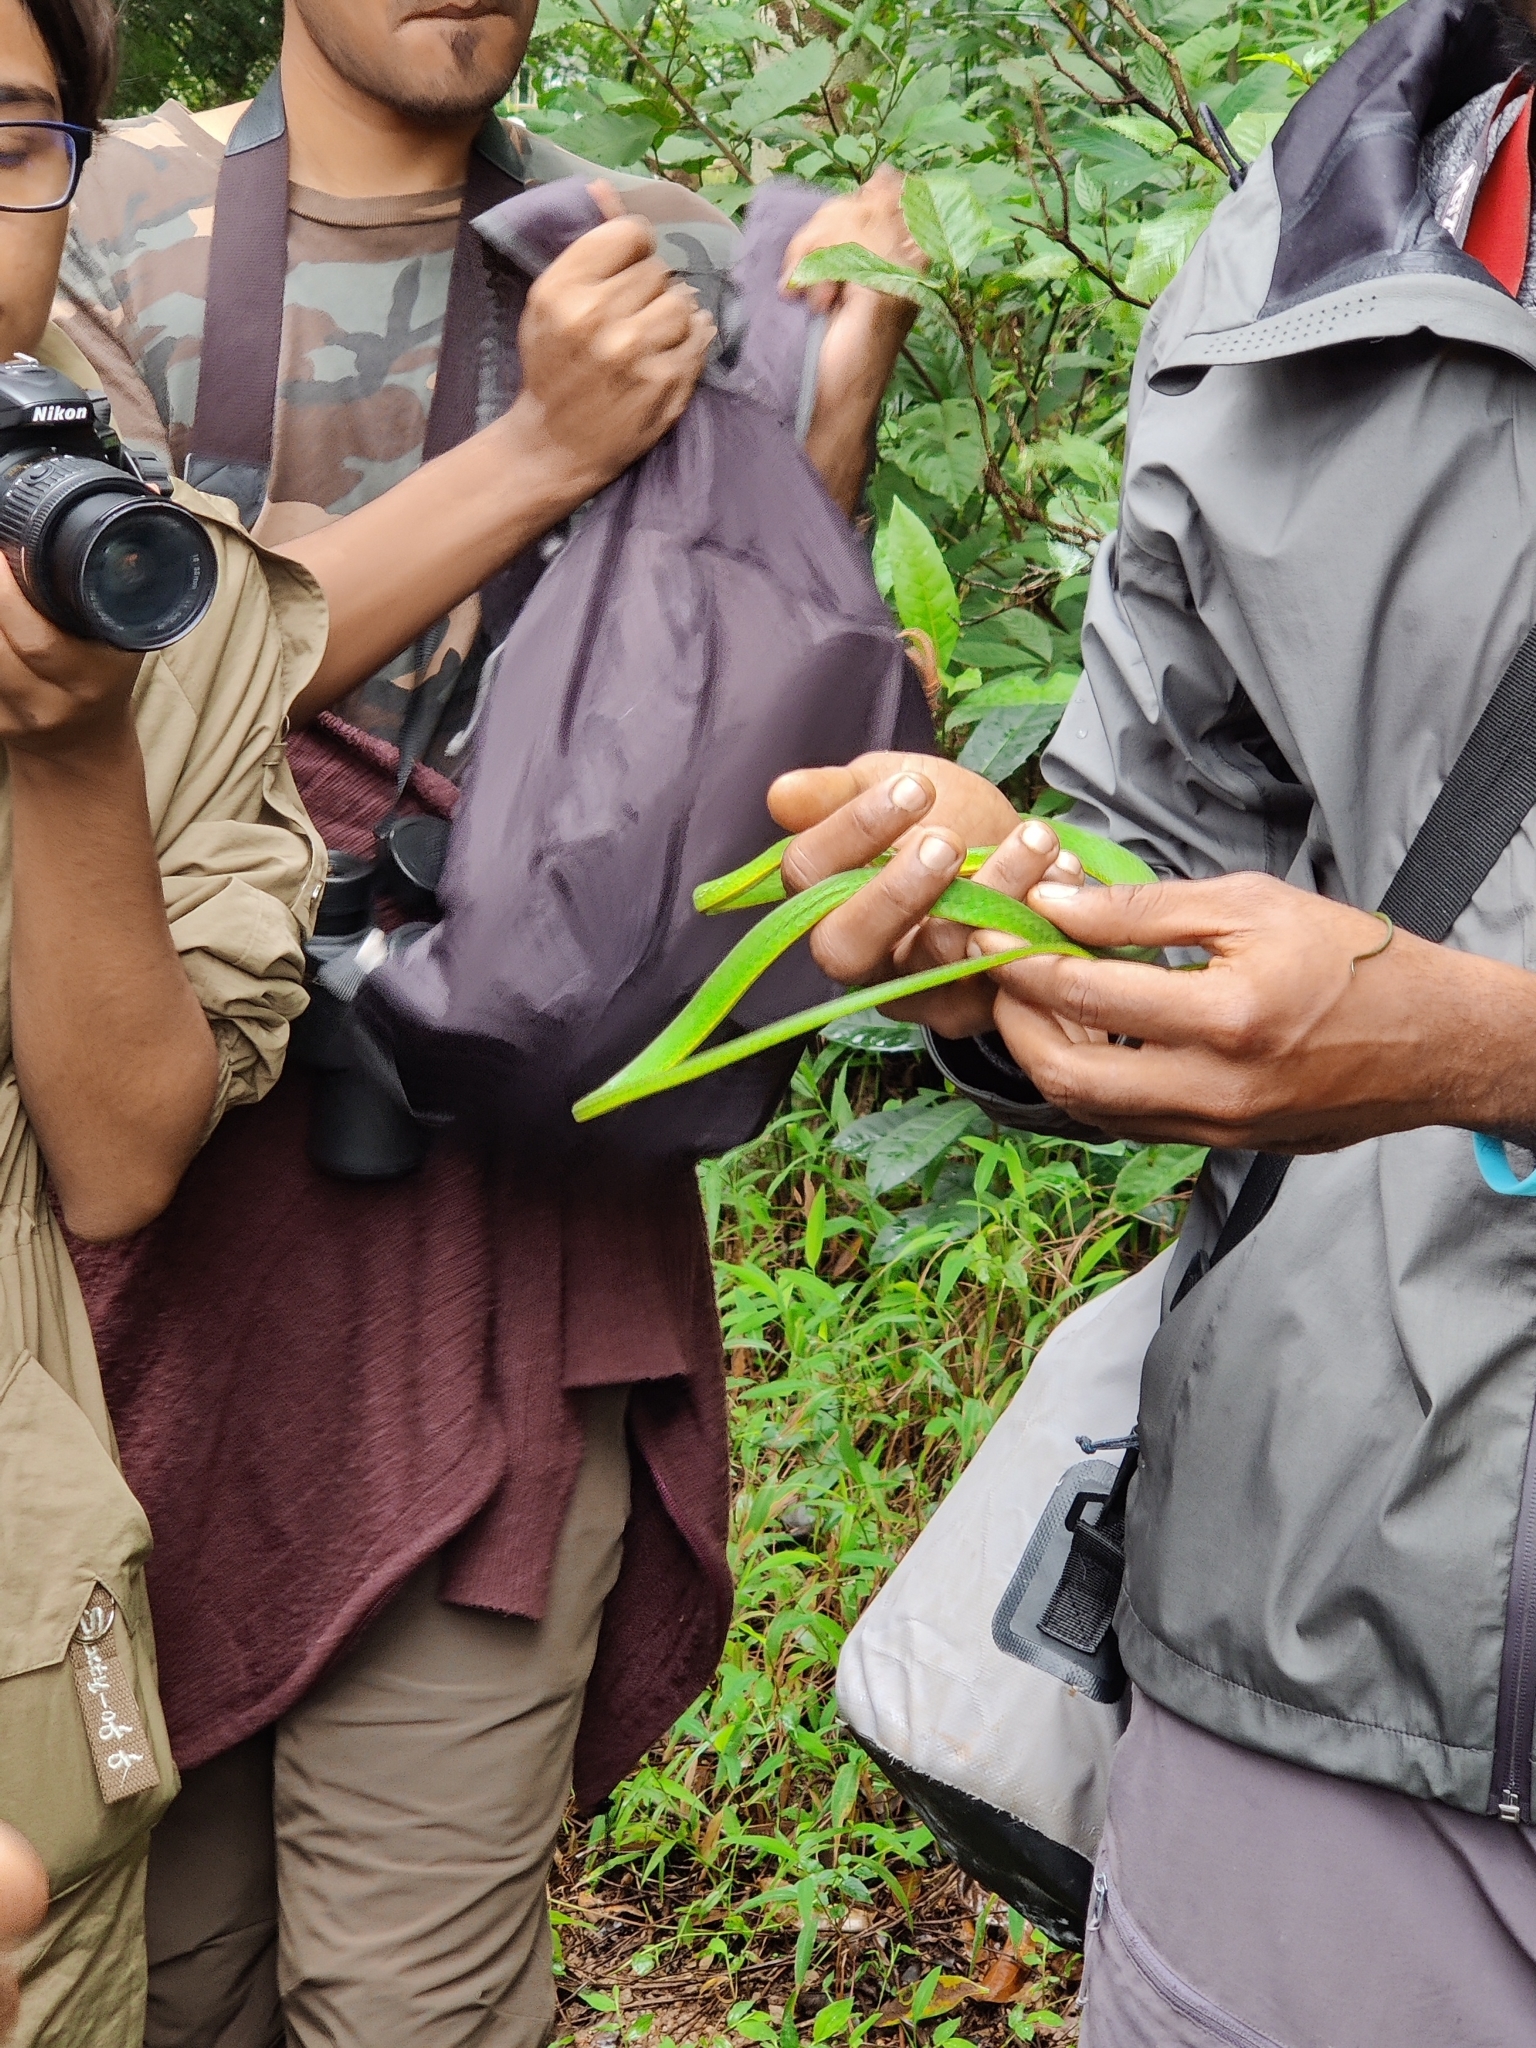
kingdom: Animalia
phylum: Chordata
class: Squamata
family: Colubridae
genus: Ahaetulla
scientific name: Ahaetulla farnsworthi
